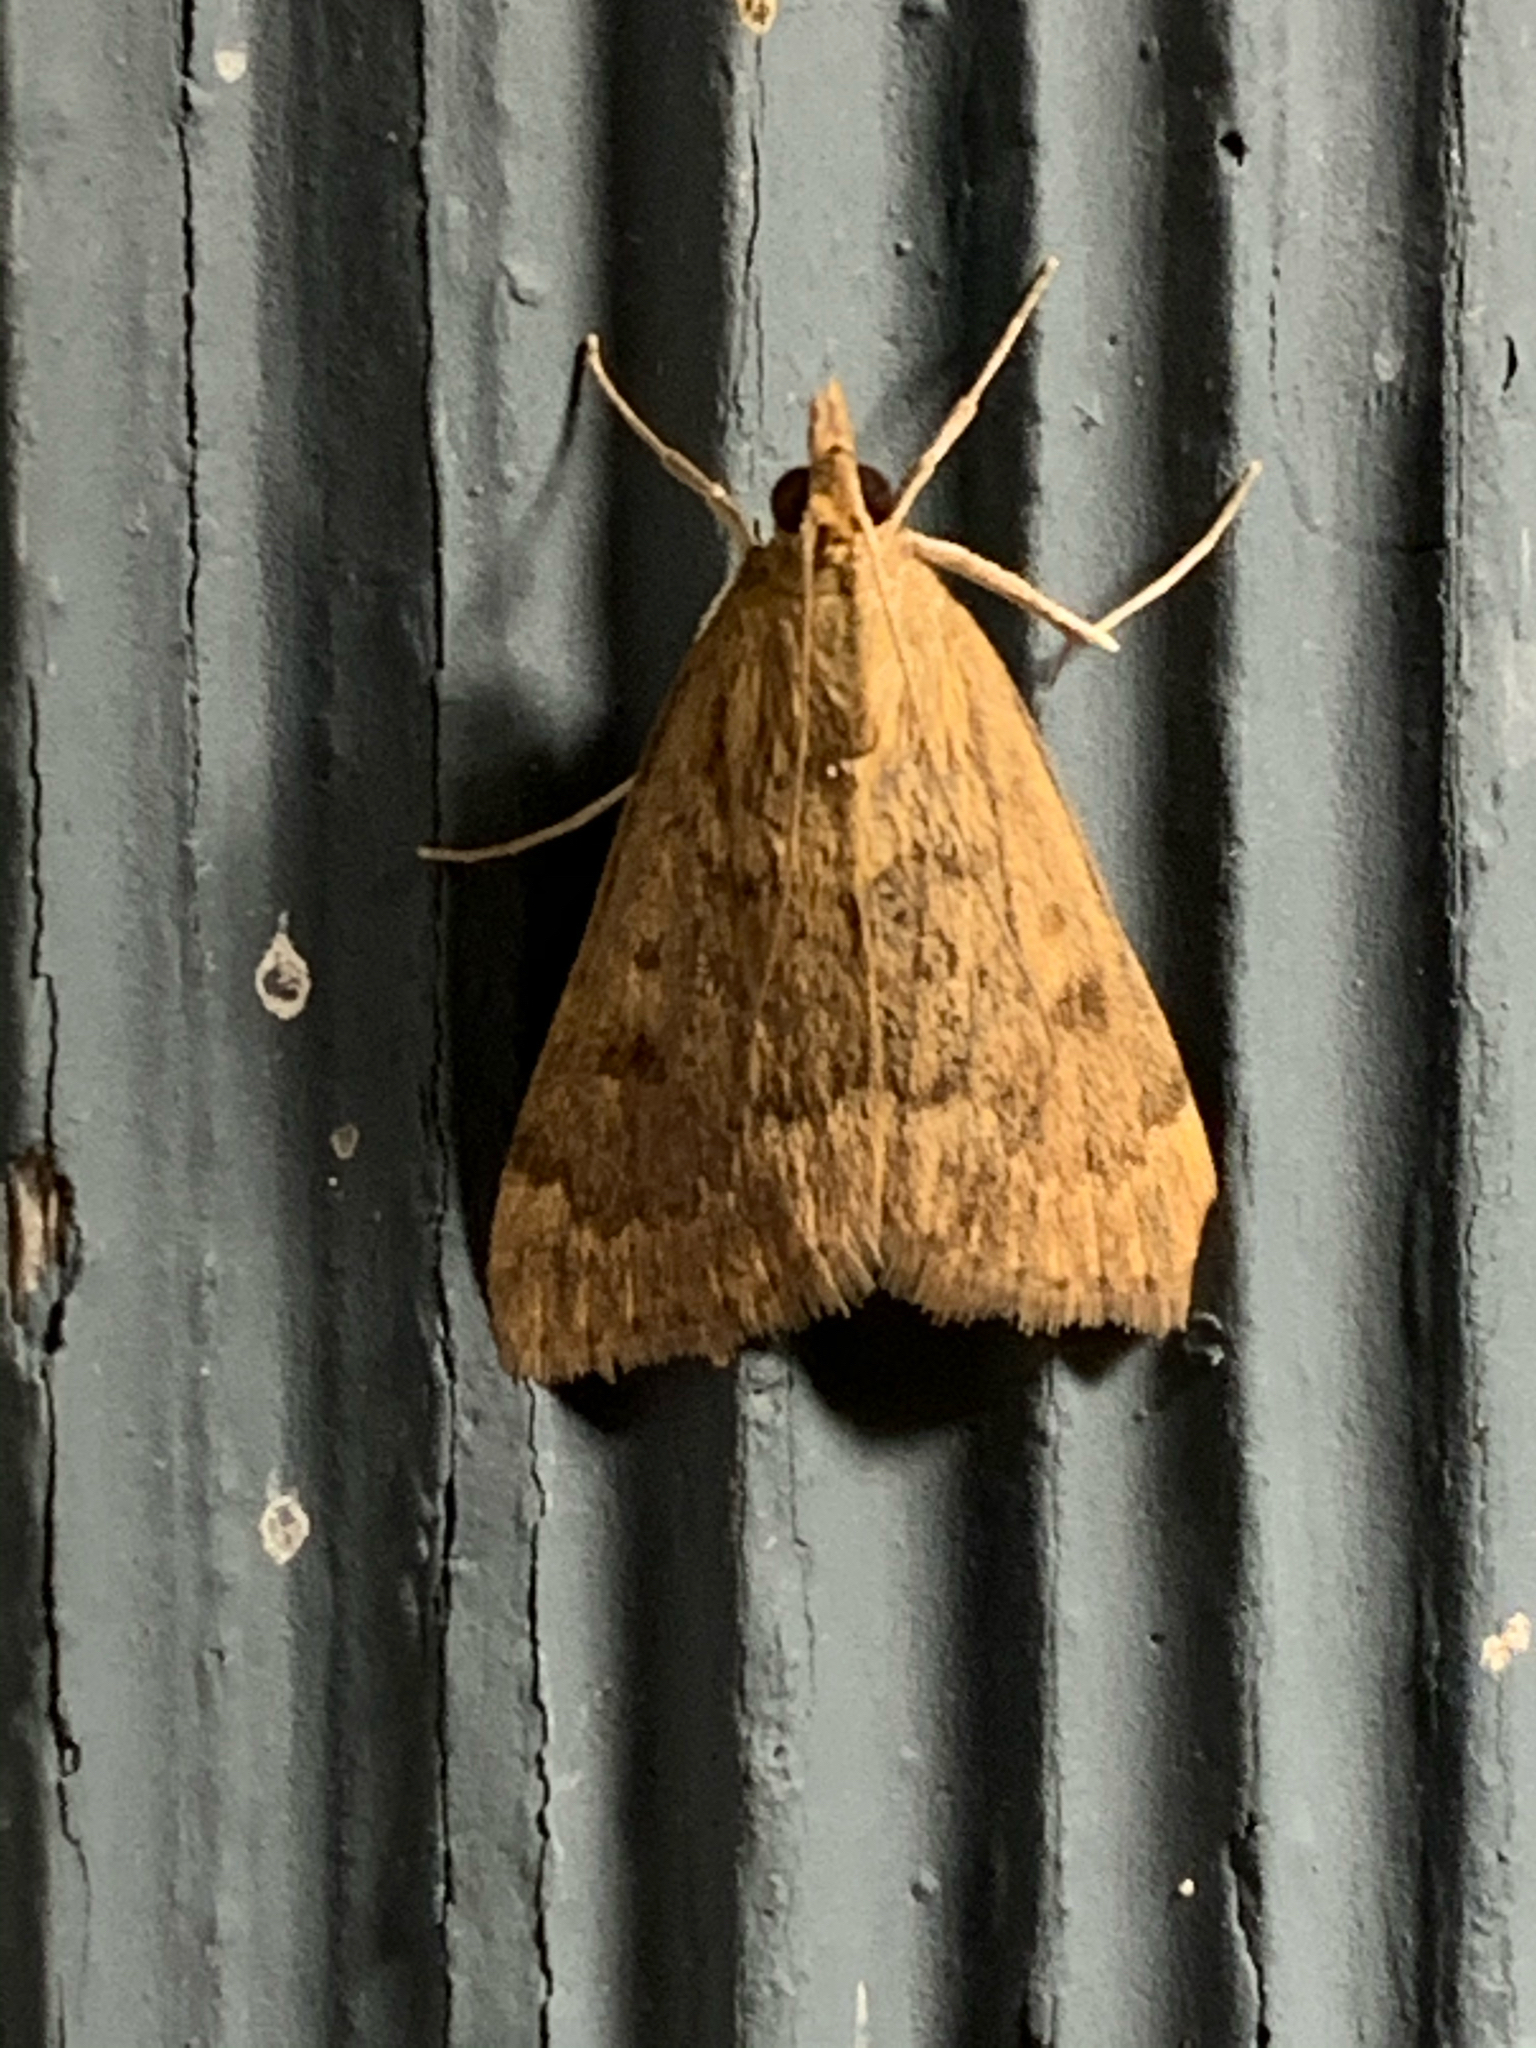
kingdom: Animalia
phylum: Arthropoda
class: Insecta
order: Lepidoptera
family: Crambidae
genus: Achyra
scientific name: Achyra rantalis
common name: Garden webworm
